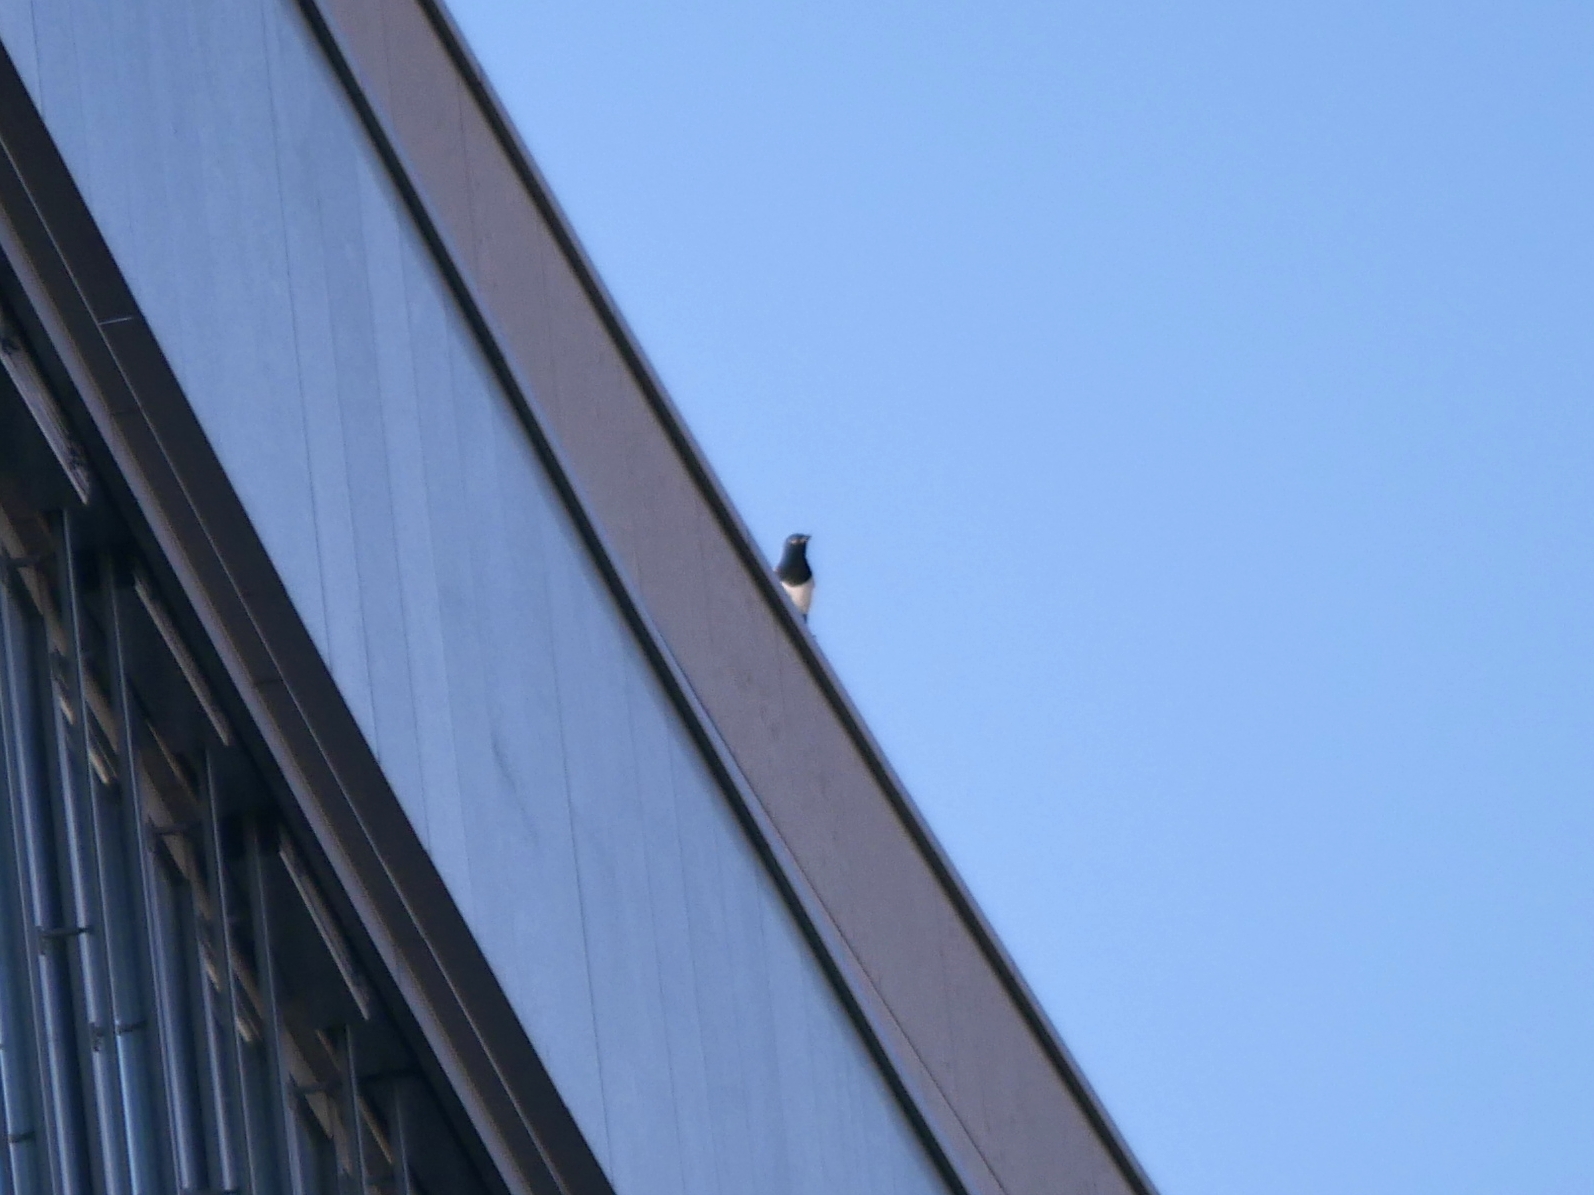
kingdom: Animalia
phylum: Chordata
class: Aves
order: Passeriformes
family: Corvidae
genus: Pica
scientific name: Pica pica
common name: Eurasian magpie
